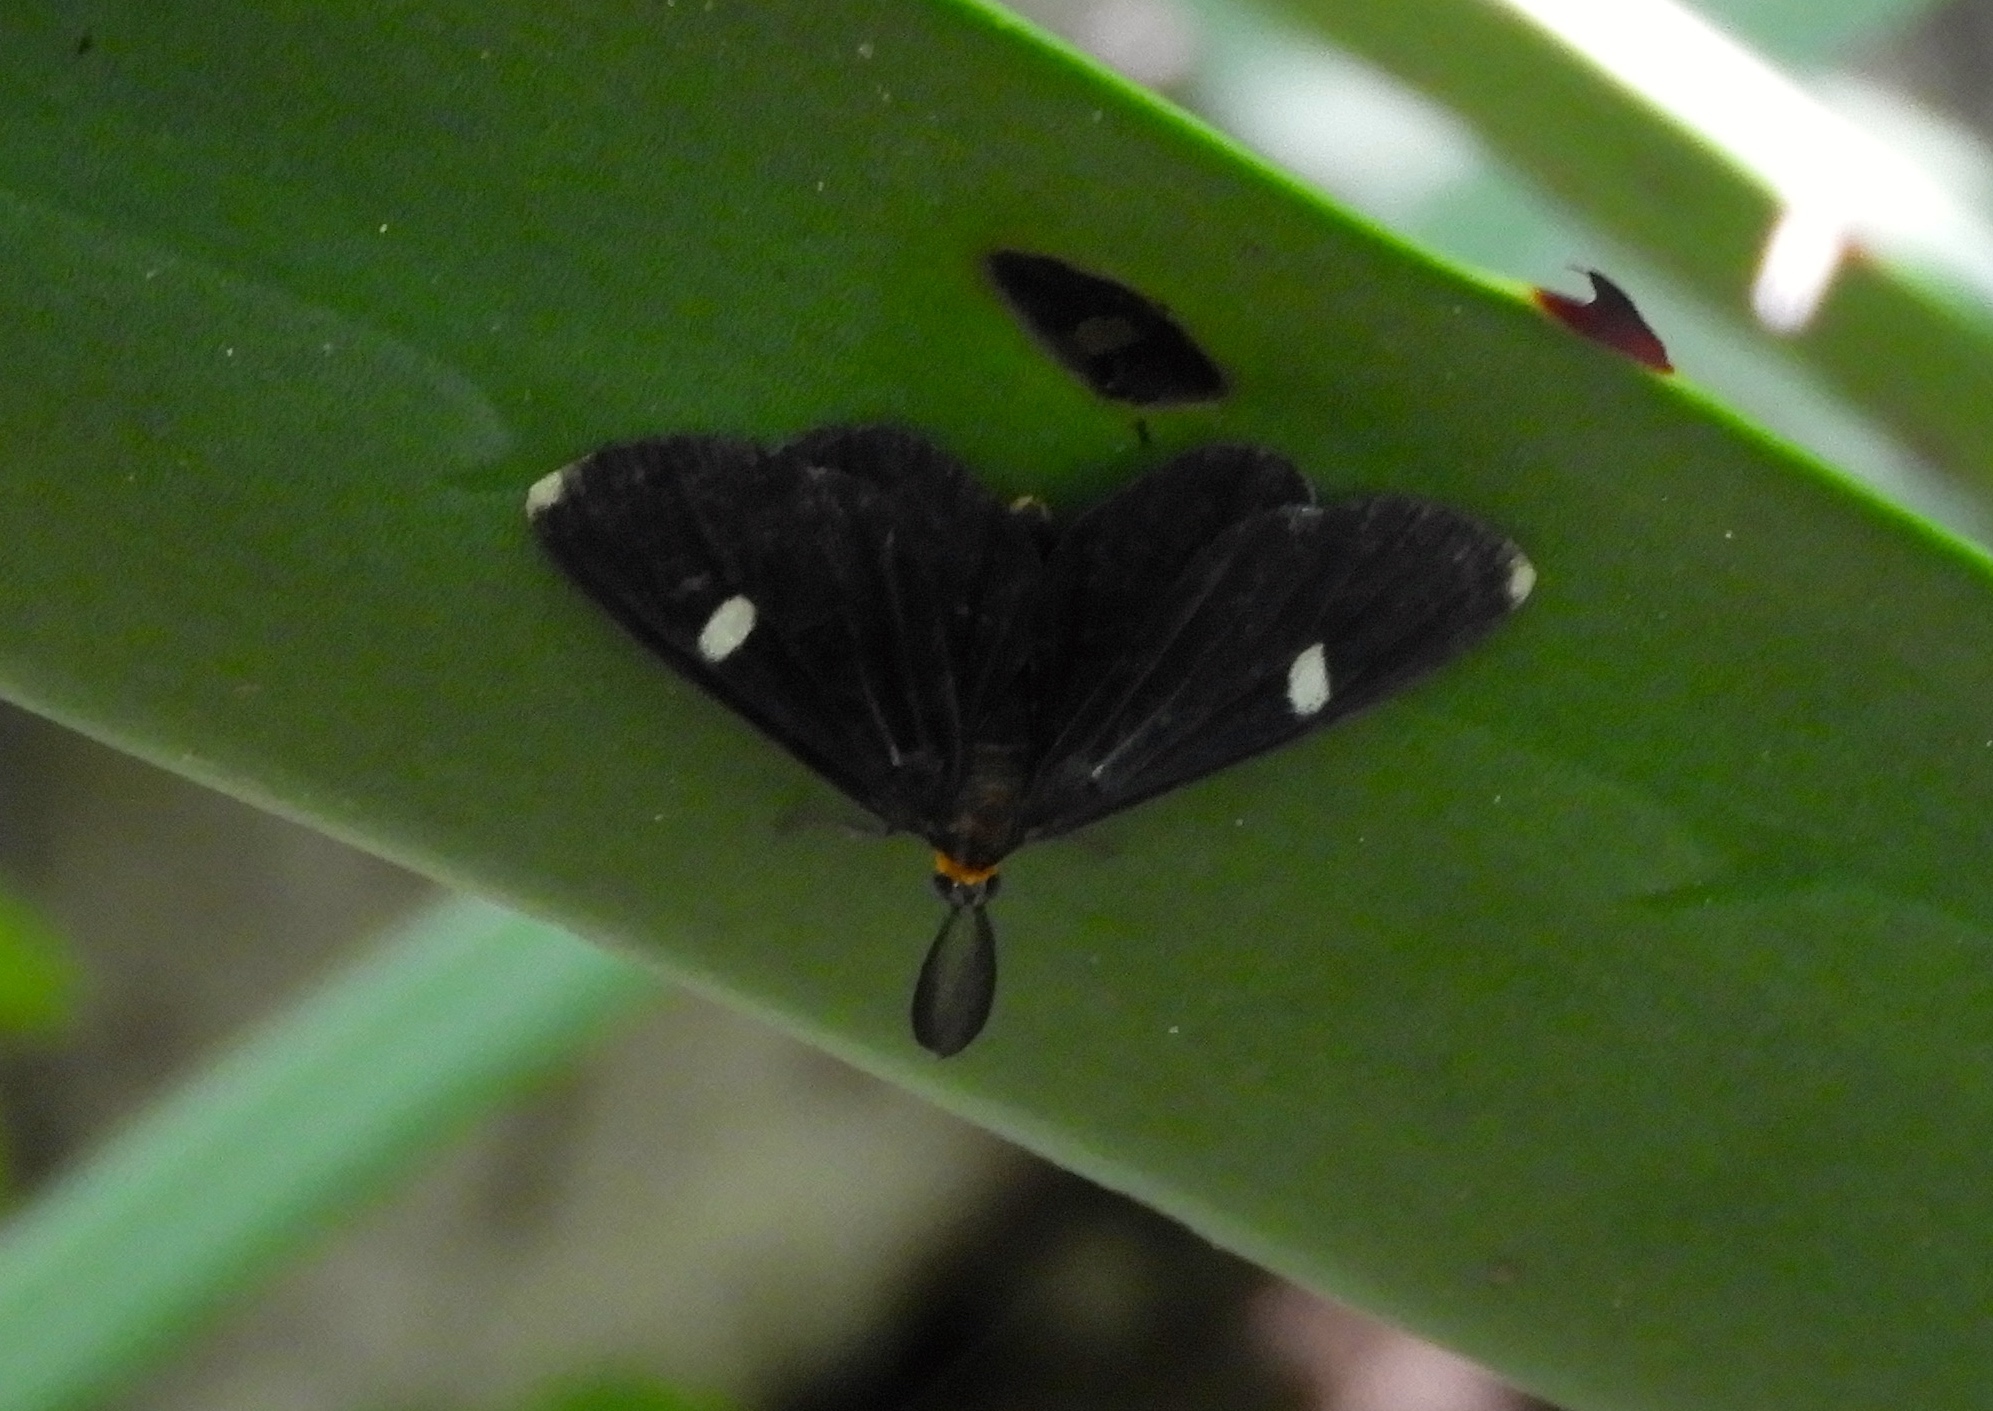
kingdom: Animalia
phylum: Arthropoda
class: Insecta
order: Lepidoptera
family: Geometridae
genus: Melanchroia
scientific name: Melanchroia vazquezae
